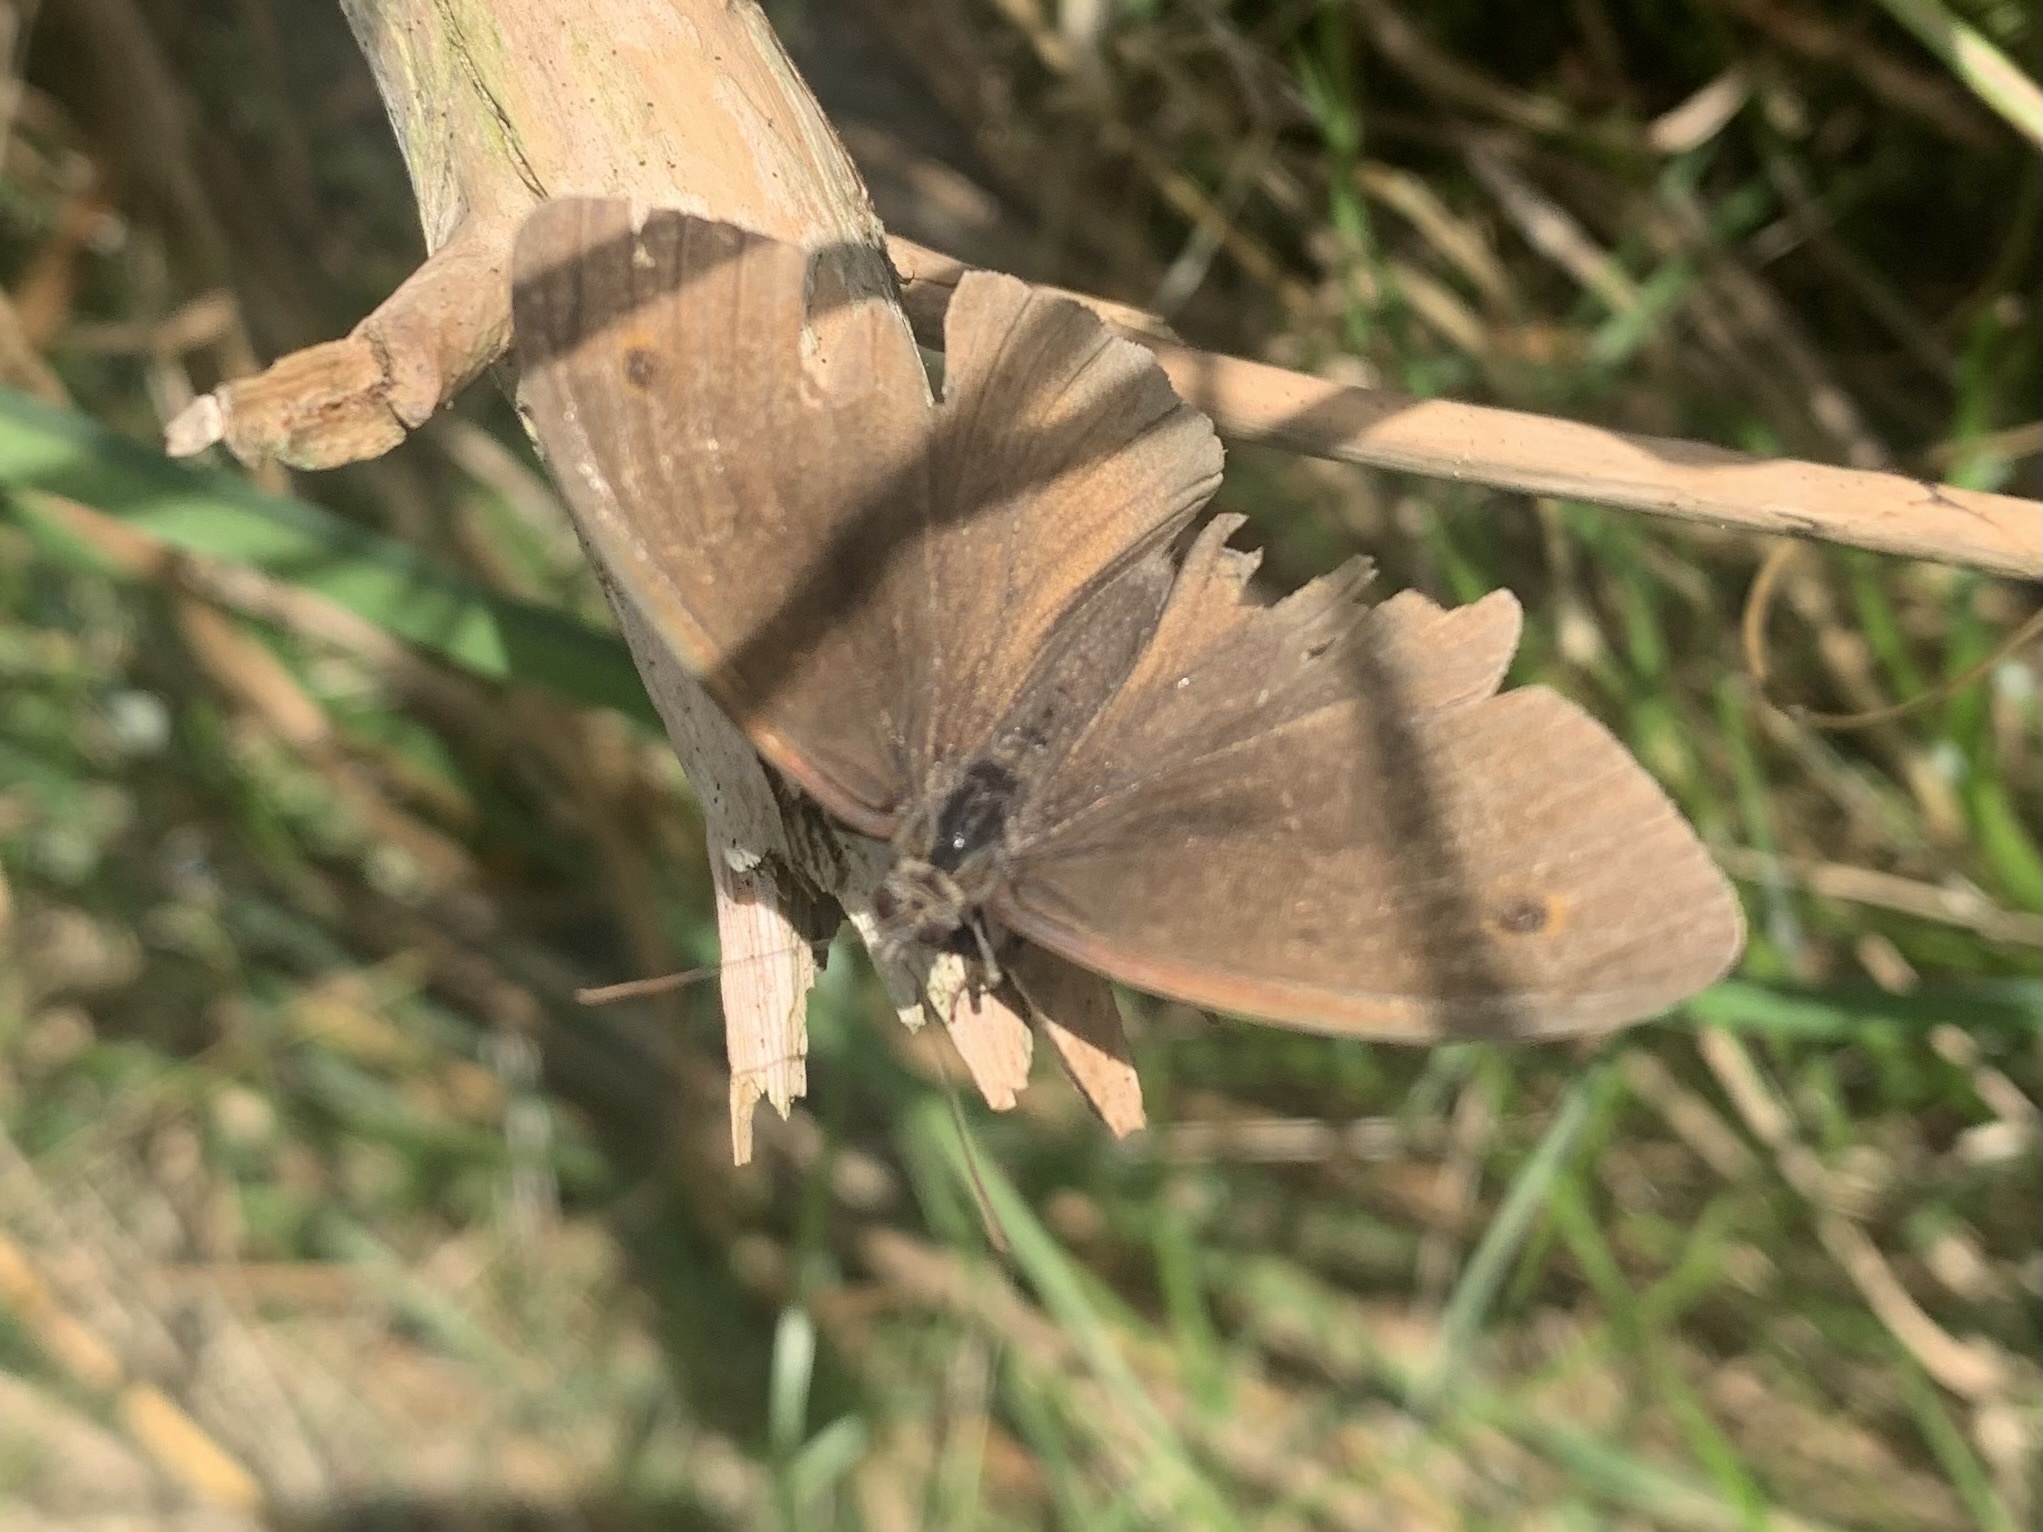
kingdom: Animalia
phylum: Arthropoda
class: Insecta
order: Lepidoptera
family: Nymphalidae
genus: Maniola
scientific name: Maniola jurtina
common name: Meadow brown
